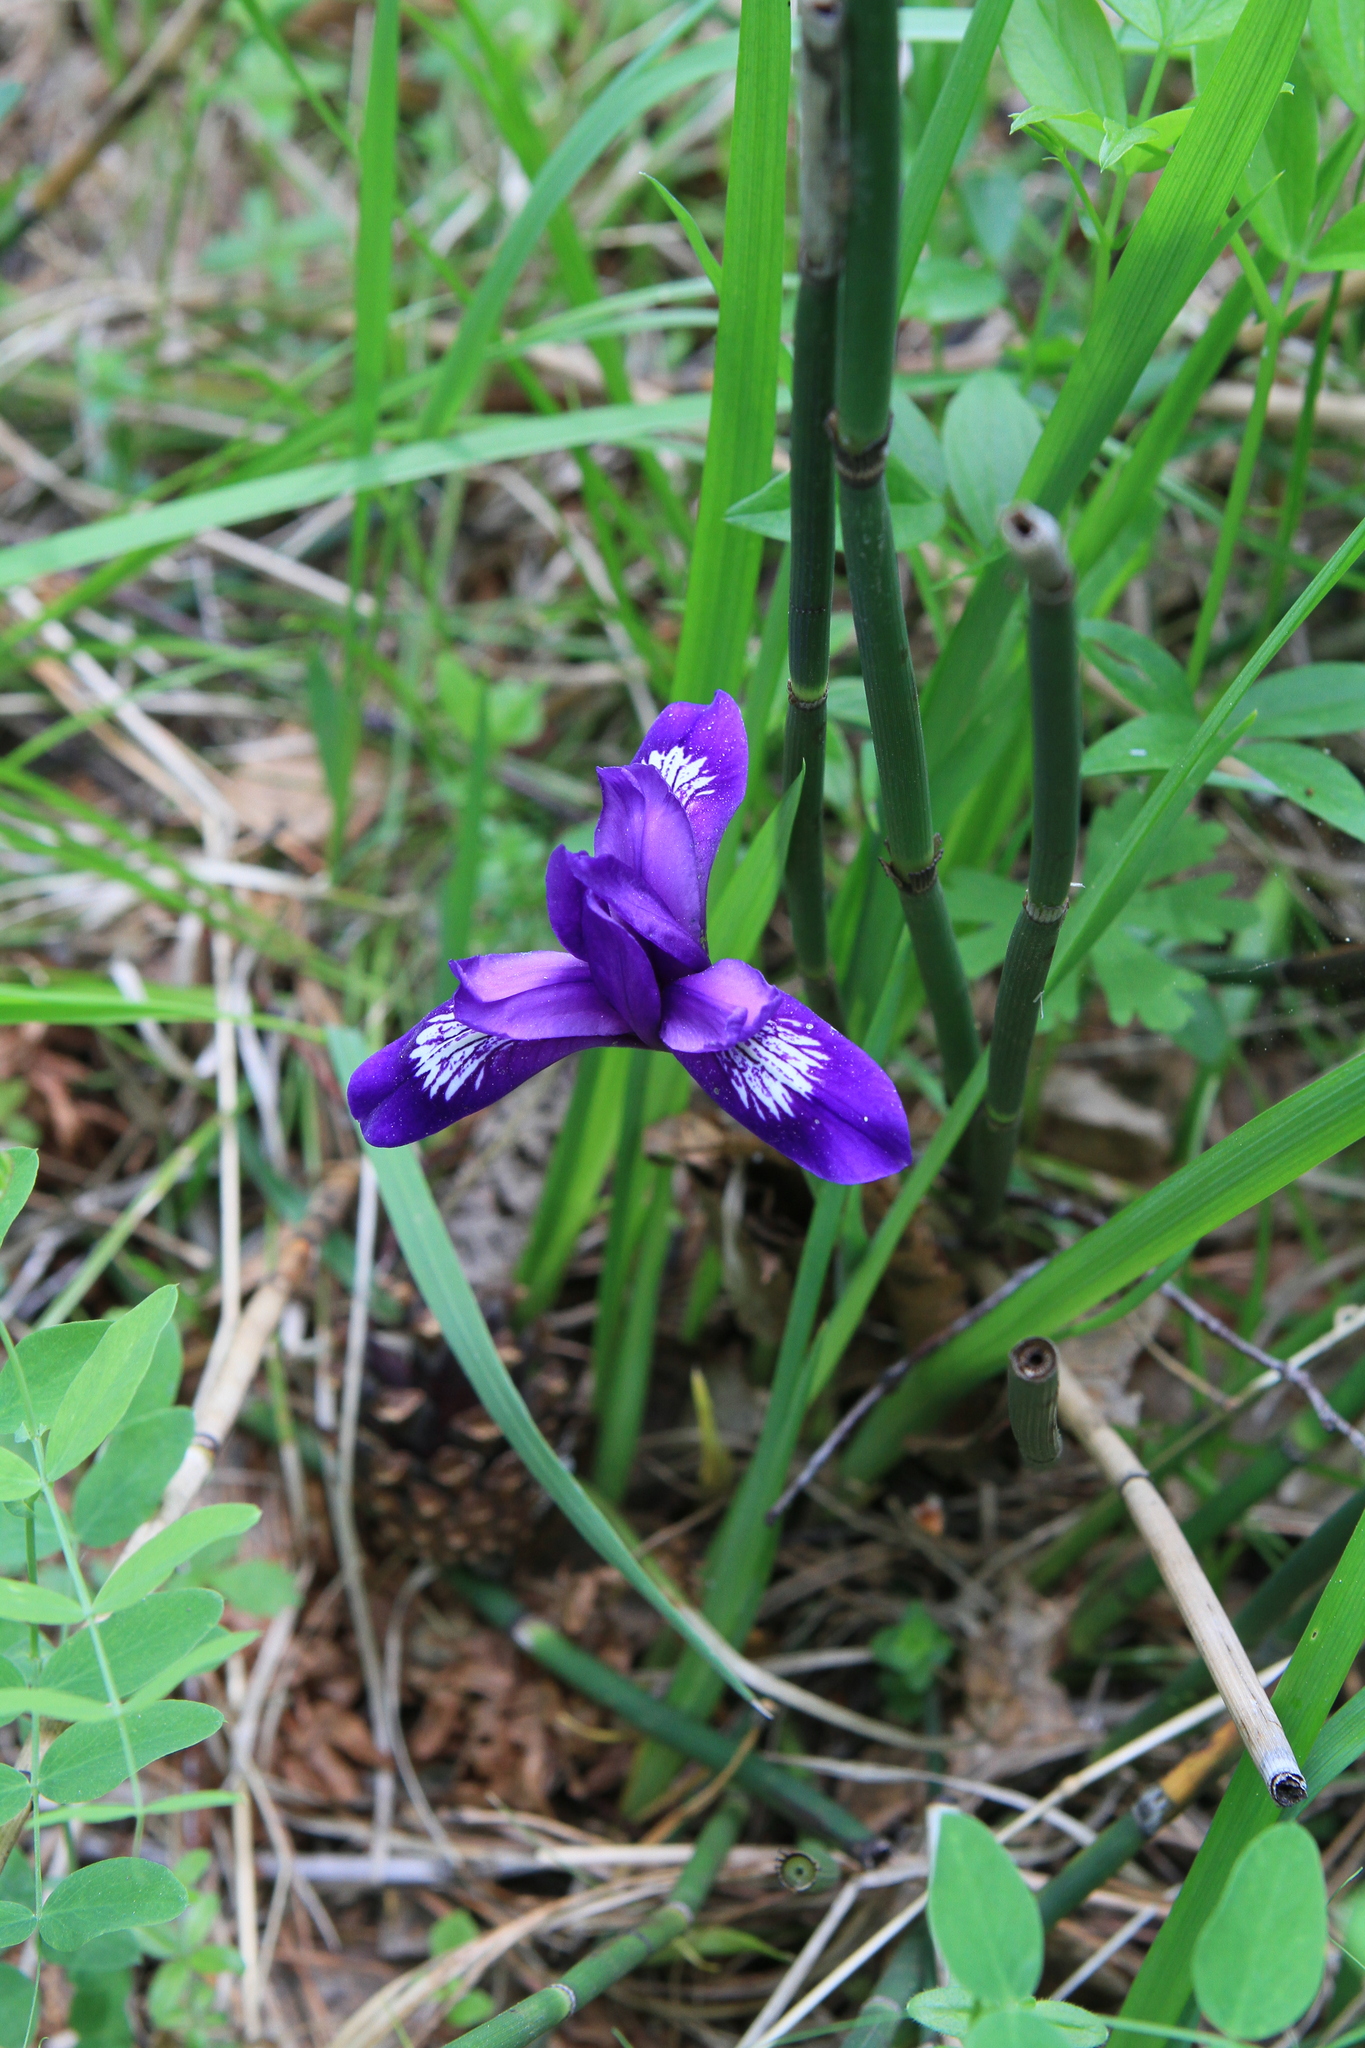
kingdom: Plantae
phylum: Tracheophyta
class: Liliopsida
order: Asparagales
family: Iridaceae
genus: Iris
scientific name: Iris ruthenica
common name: Purple-bract iris
